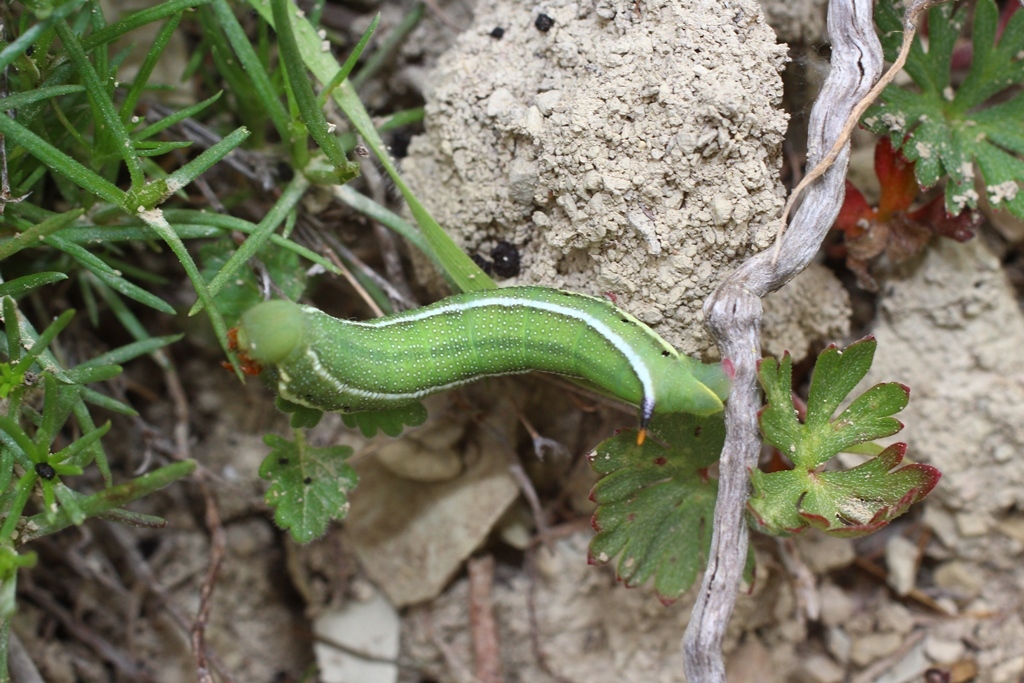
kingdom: Animalia
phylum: Arthropoda
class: Insecta
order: Lepidoptera
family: Sphingidae
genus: Macroglossum
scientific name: Macroglossum stellatarum
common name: Humming-bird hawk-moth
